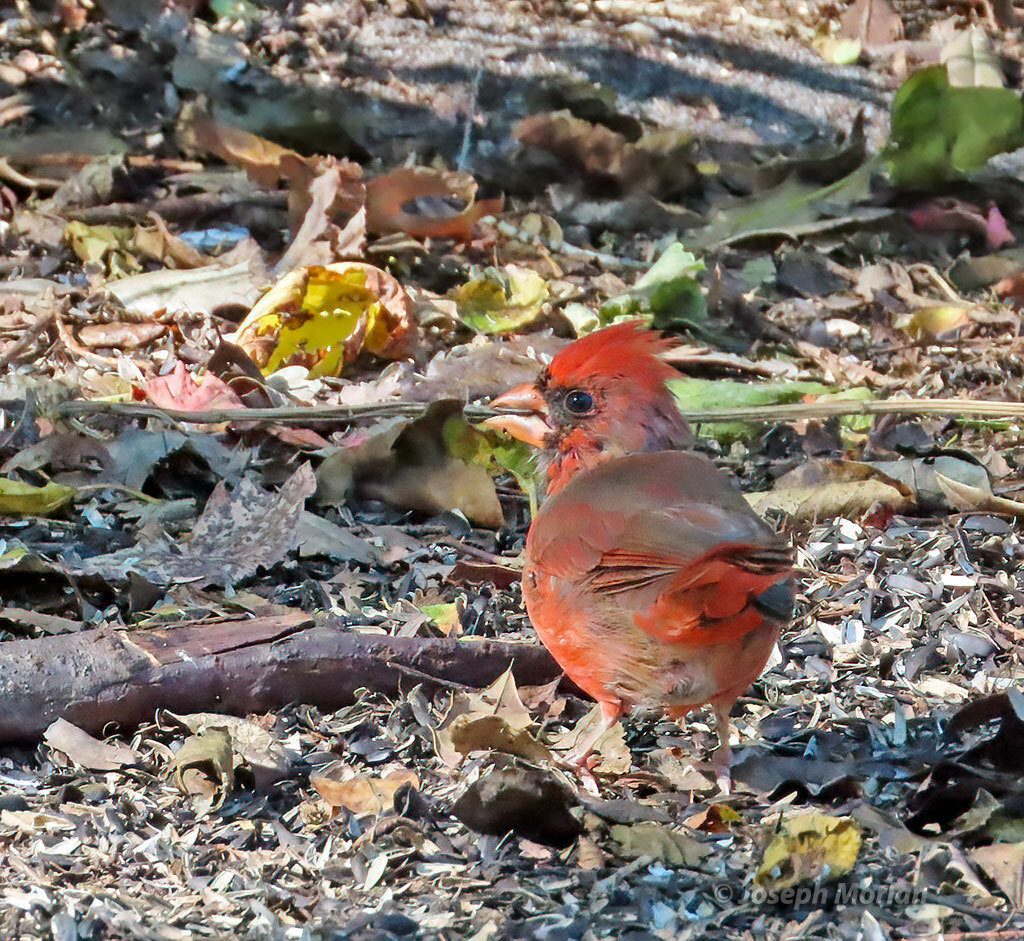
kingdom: Animalia
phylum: Chordata
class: Aves
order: Passeriformes
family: Cardinalidae
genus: Cardinalis
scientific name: Cardinalis cardinalis
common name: Northern cardinal
